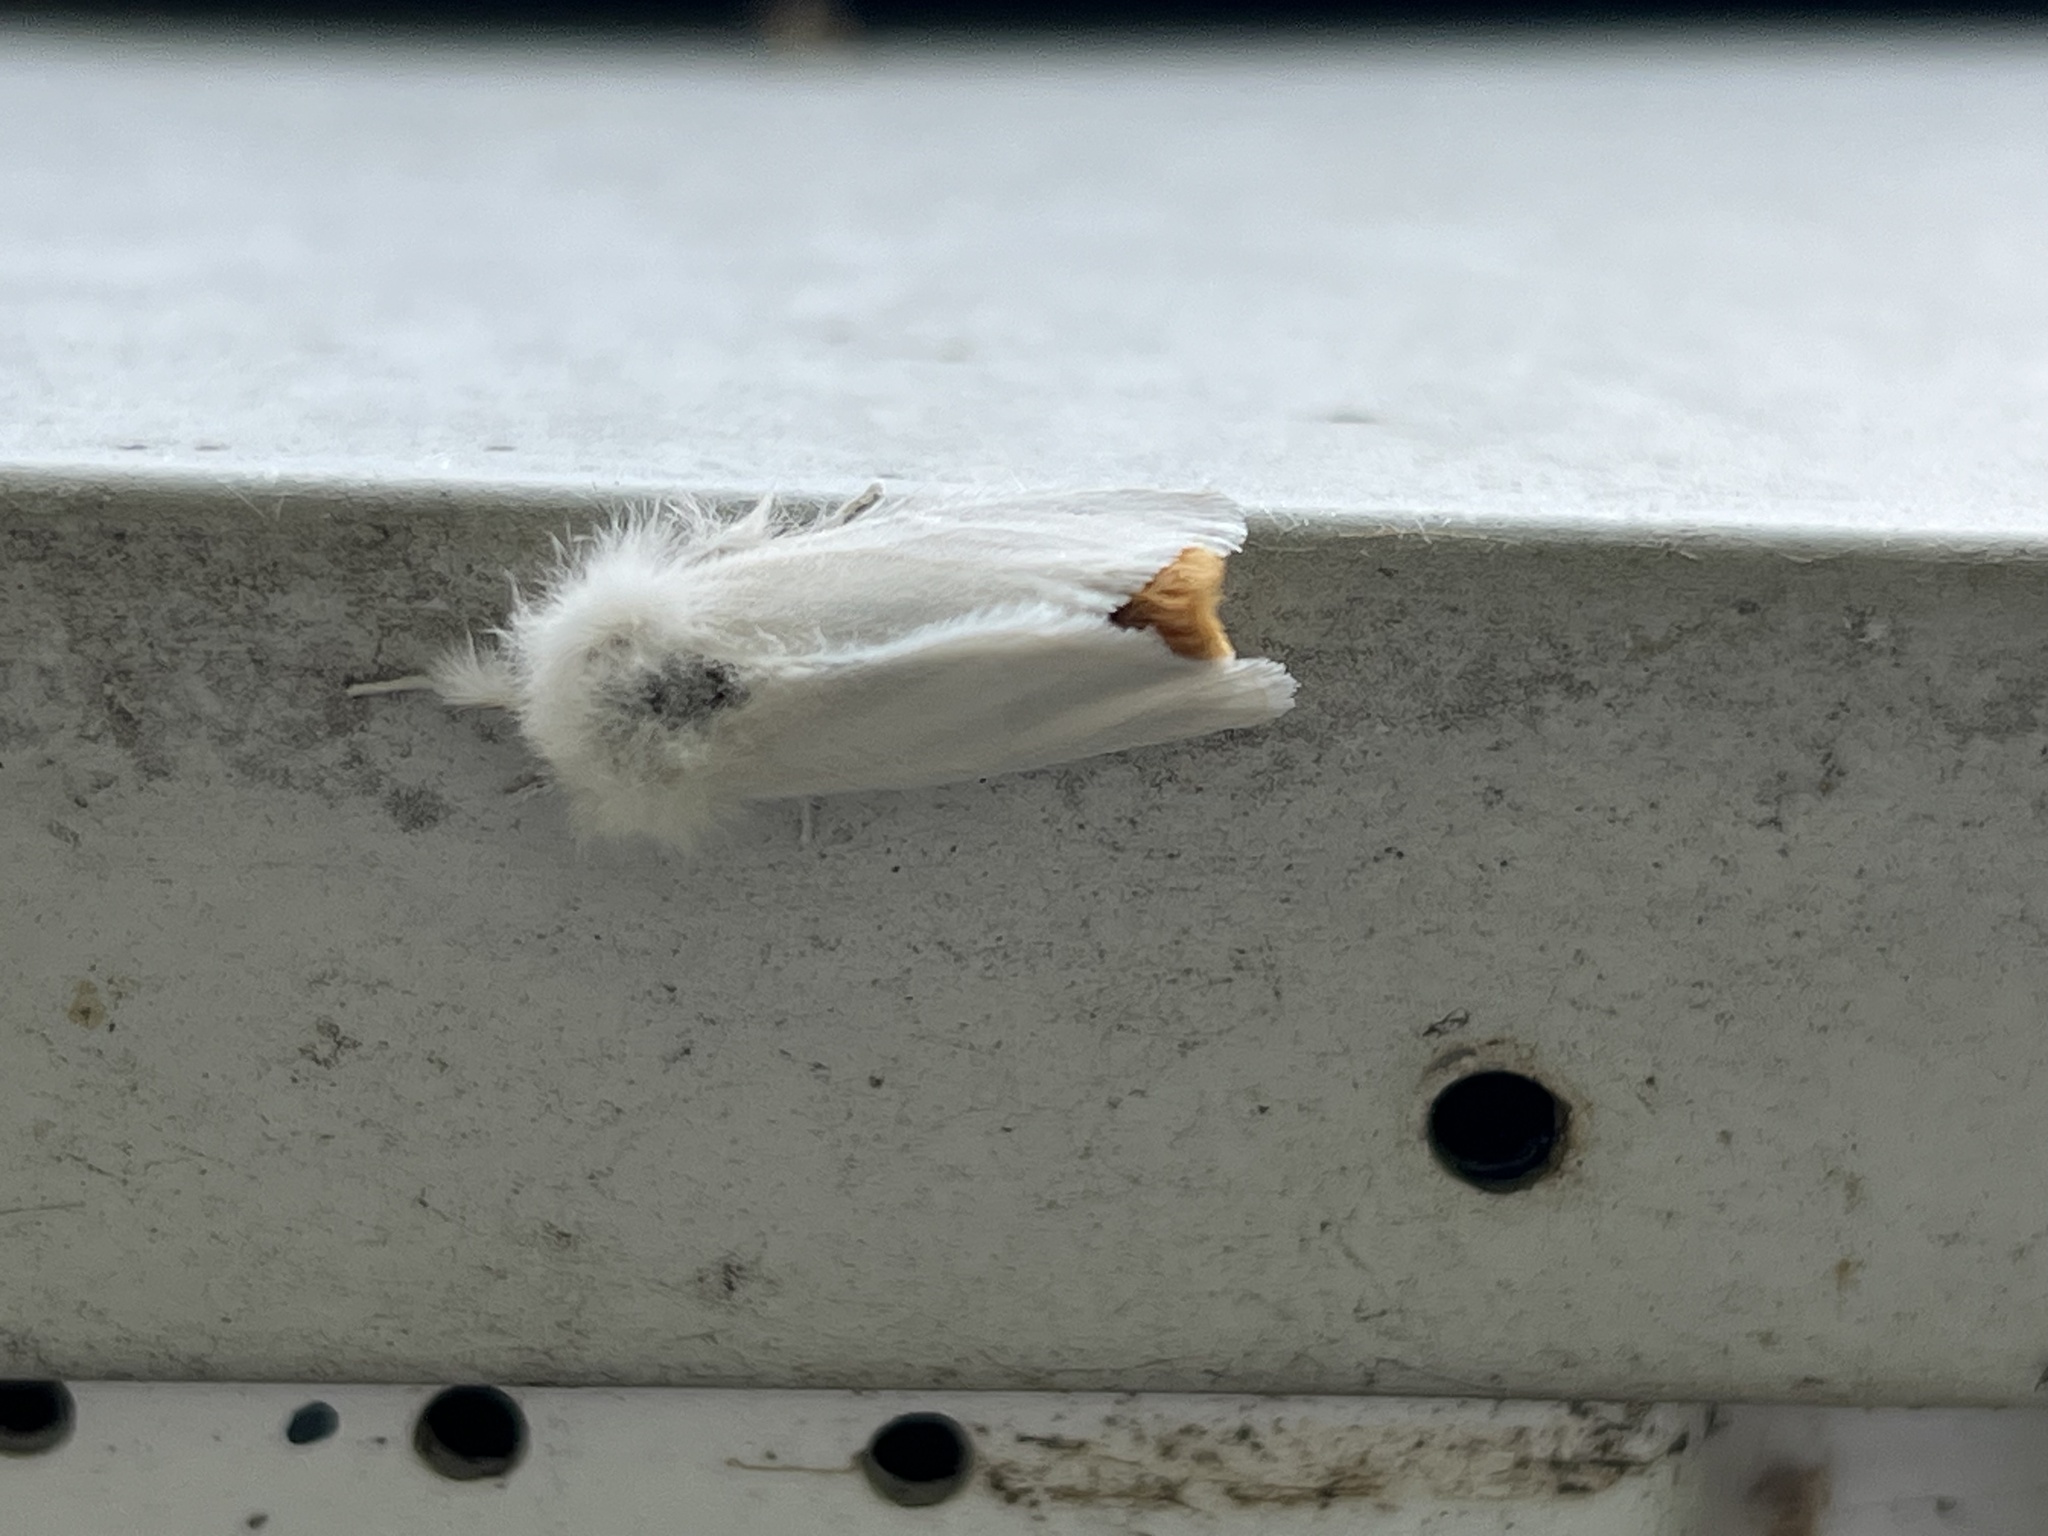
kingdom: Animalia
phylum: Arthropoda
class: Insecta
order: Lepidoptera
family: Erebidae
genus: Euproctis
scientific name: Euproctis chrysorrhoea
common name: Brown-tail
